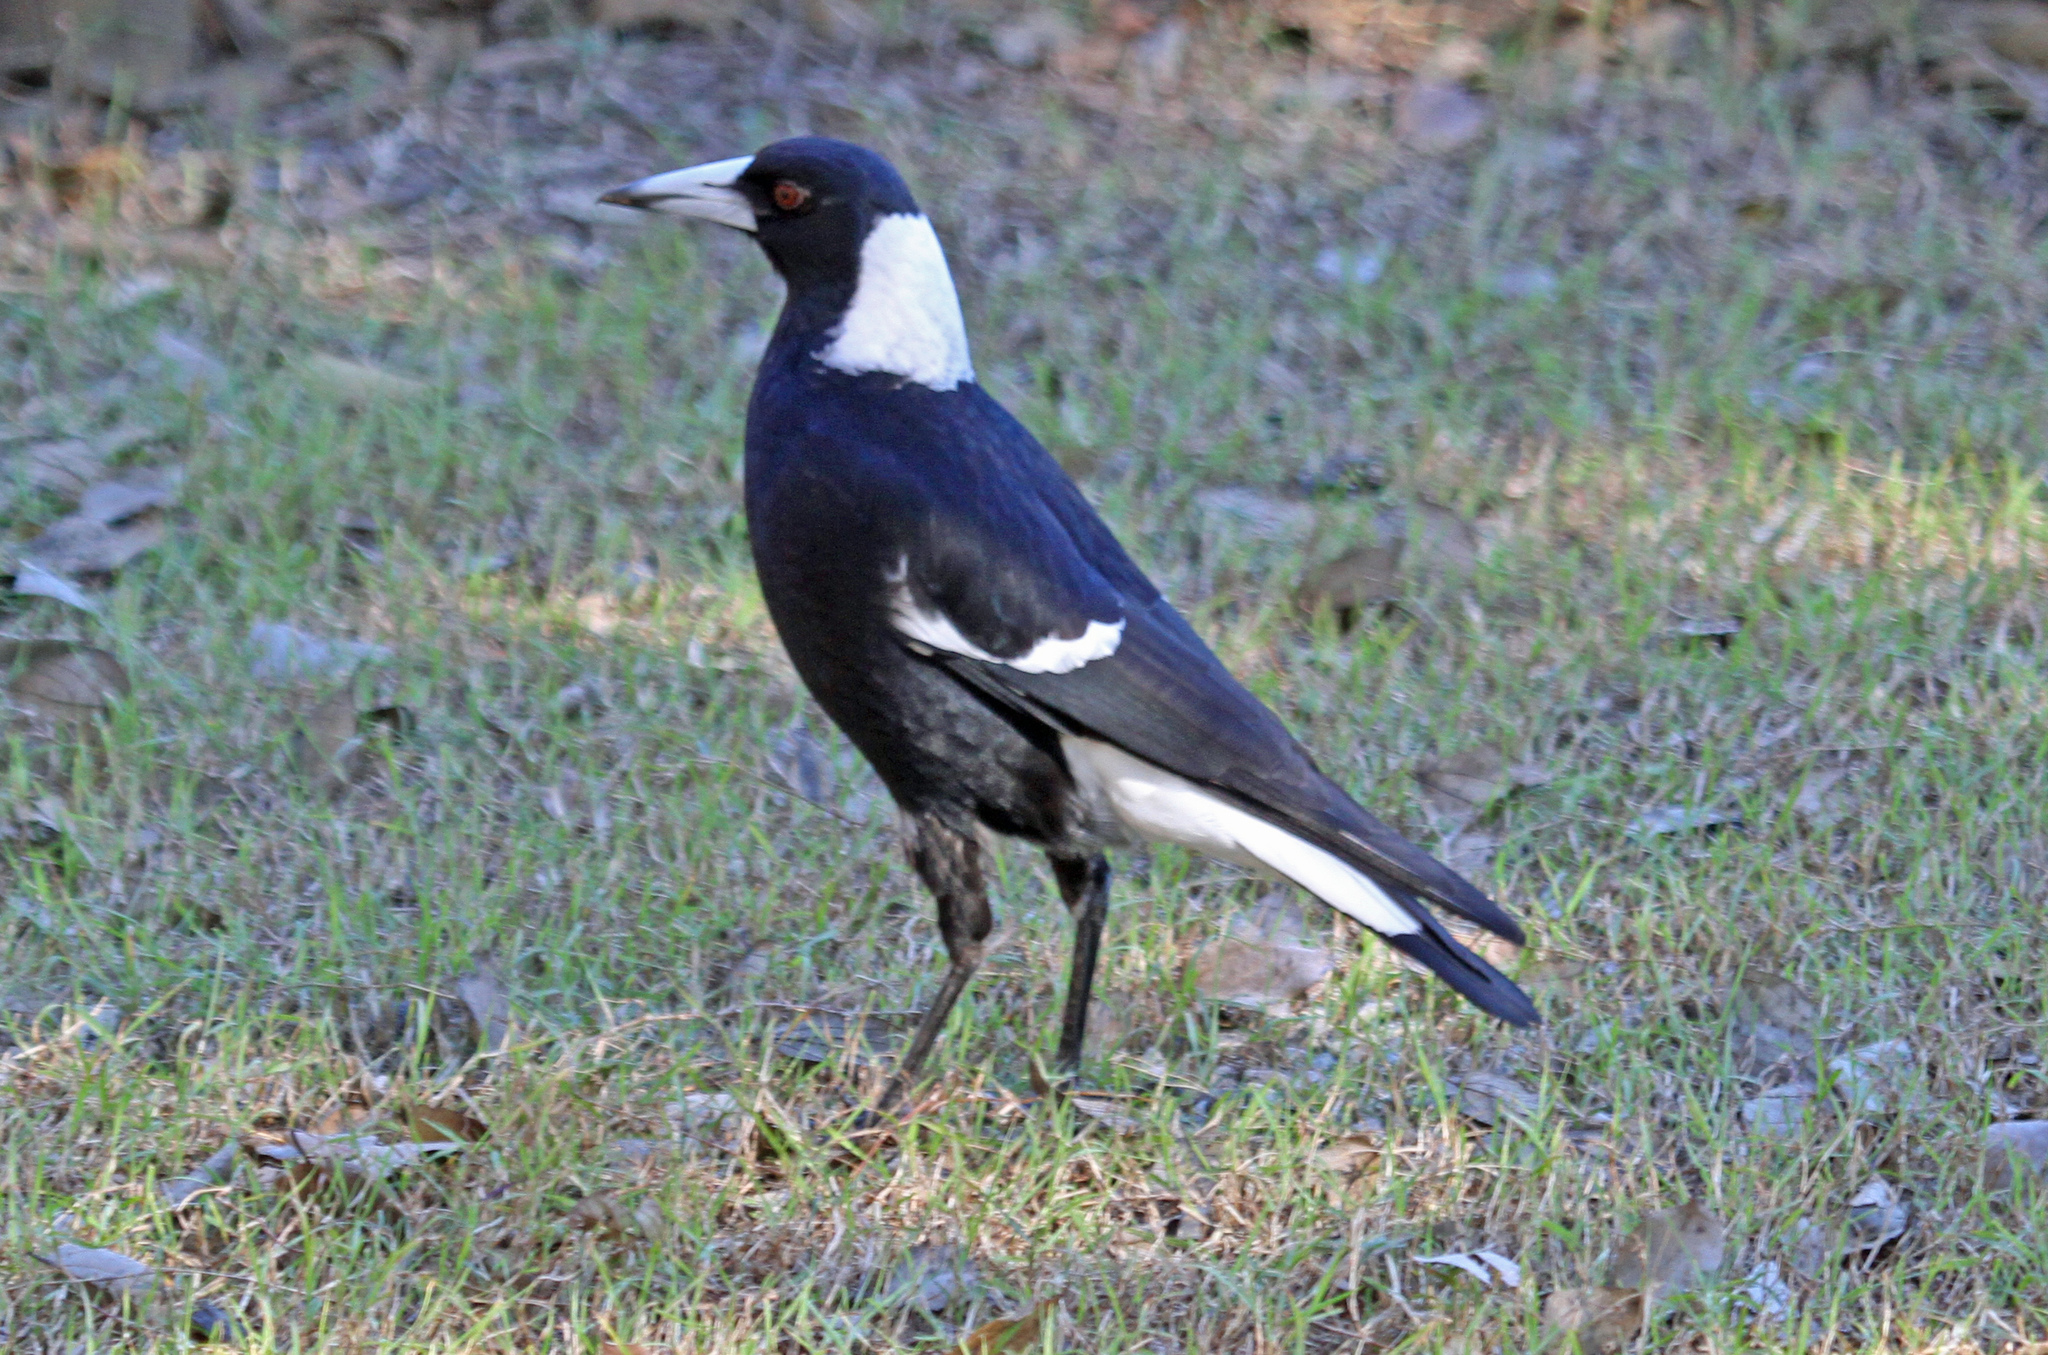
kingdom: Animalia
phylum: Chordata
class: Aves
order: Passeriformes
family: Cracticidae
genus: Gymnorhina
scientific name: Gymnorhina tibicen
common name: Australian magpie
